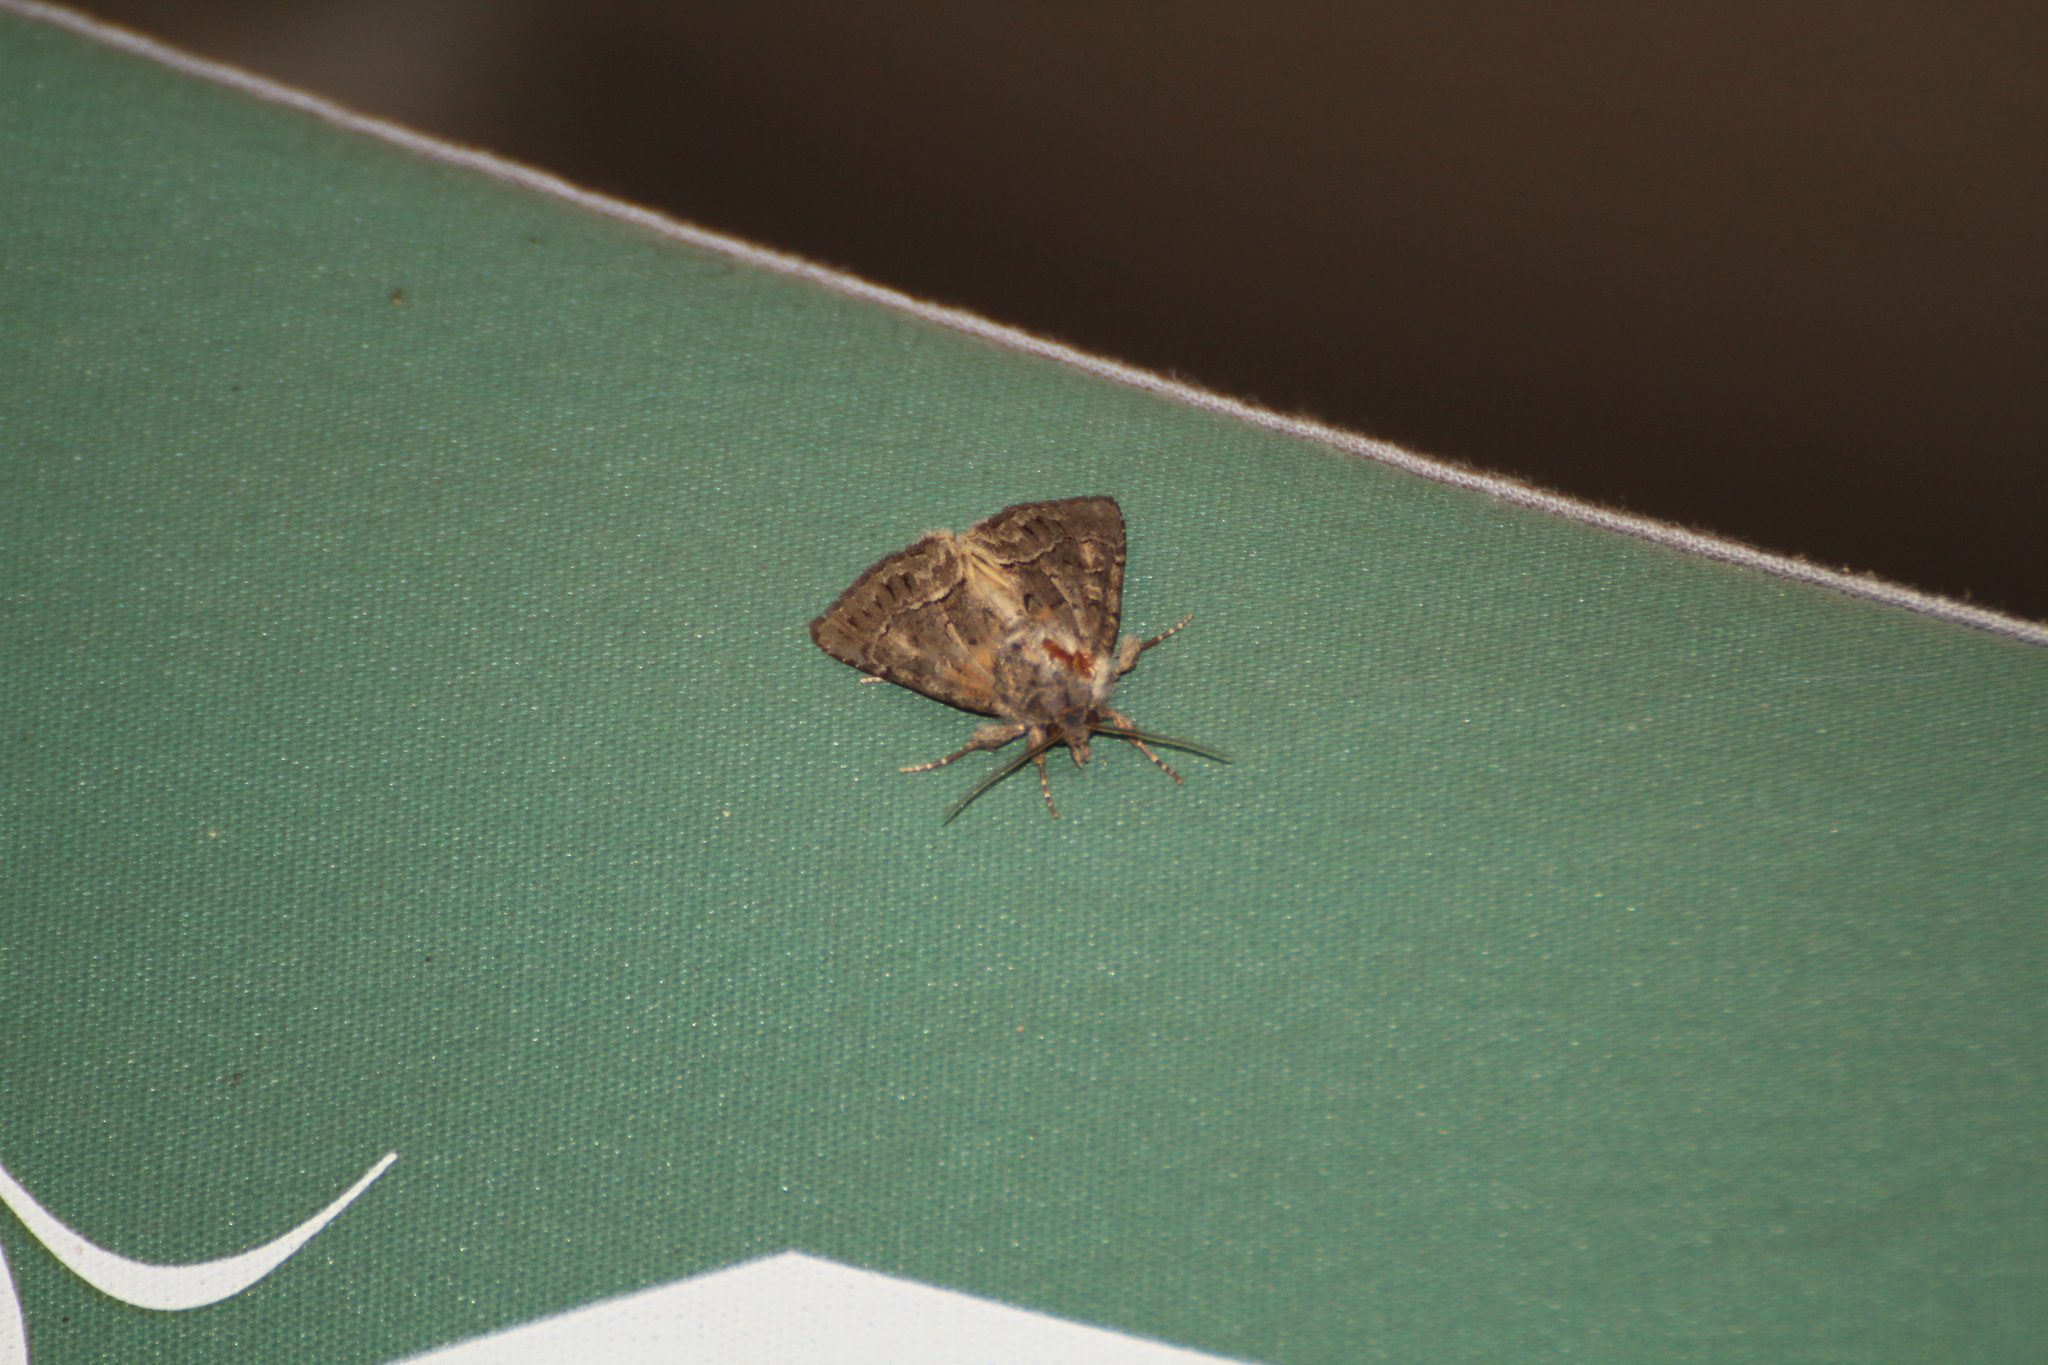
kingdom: Animalia
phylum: Arthropoda
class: Insecta
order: Lepidoptera
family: Noctuidae
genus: Thalpophila
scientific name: Thalpophila matura
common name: Straw underwing
